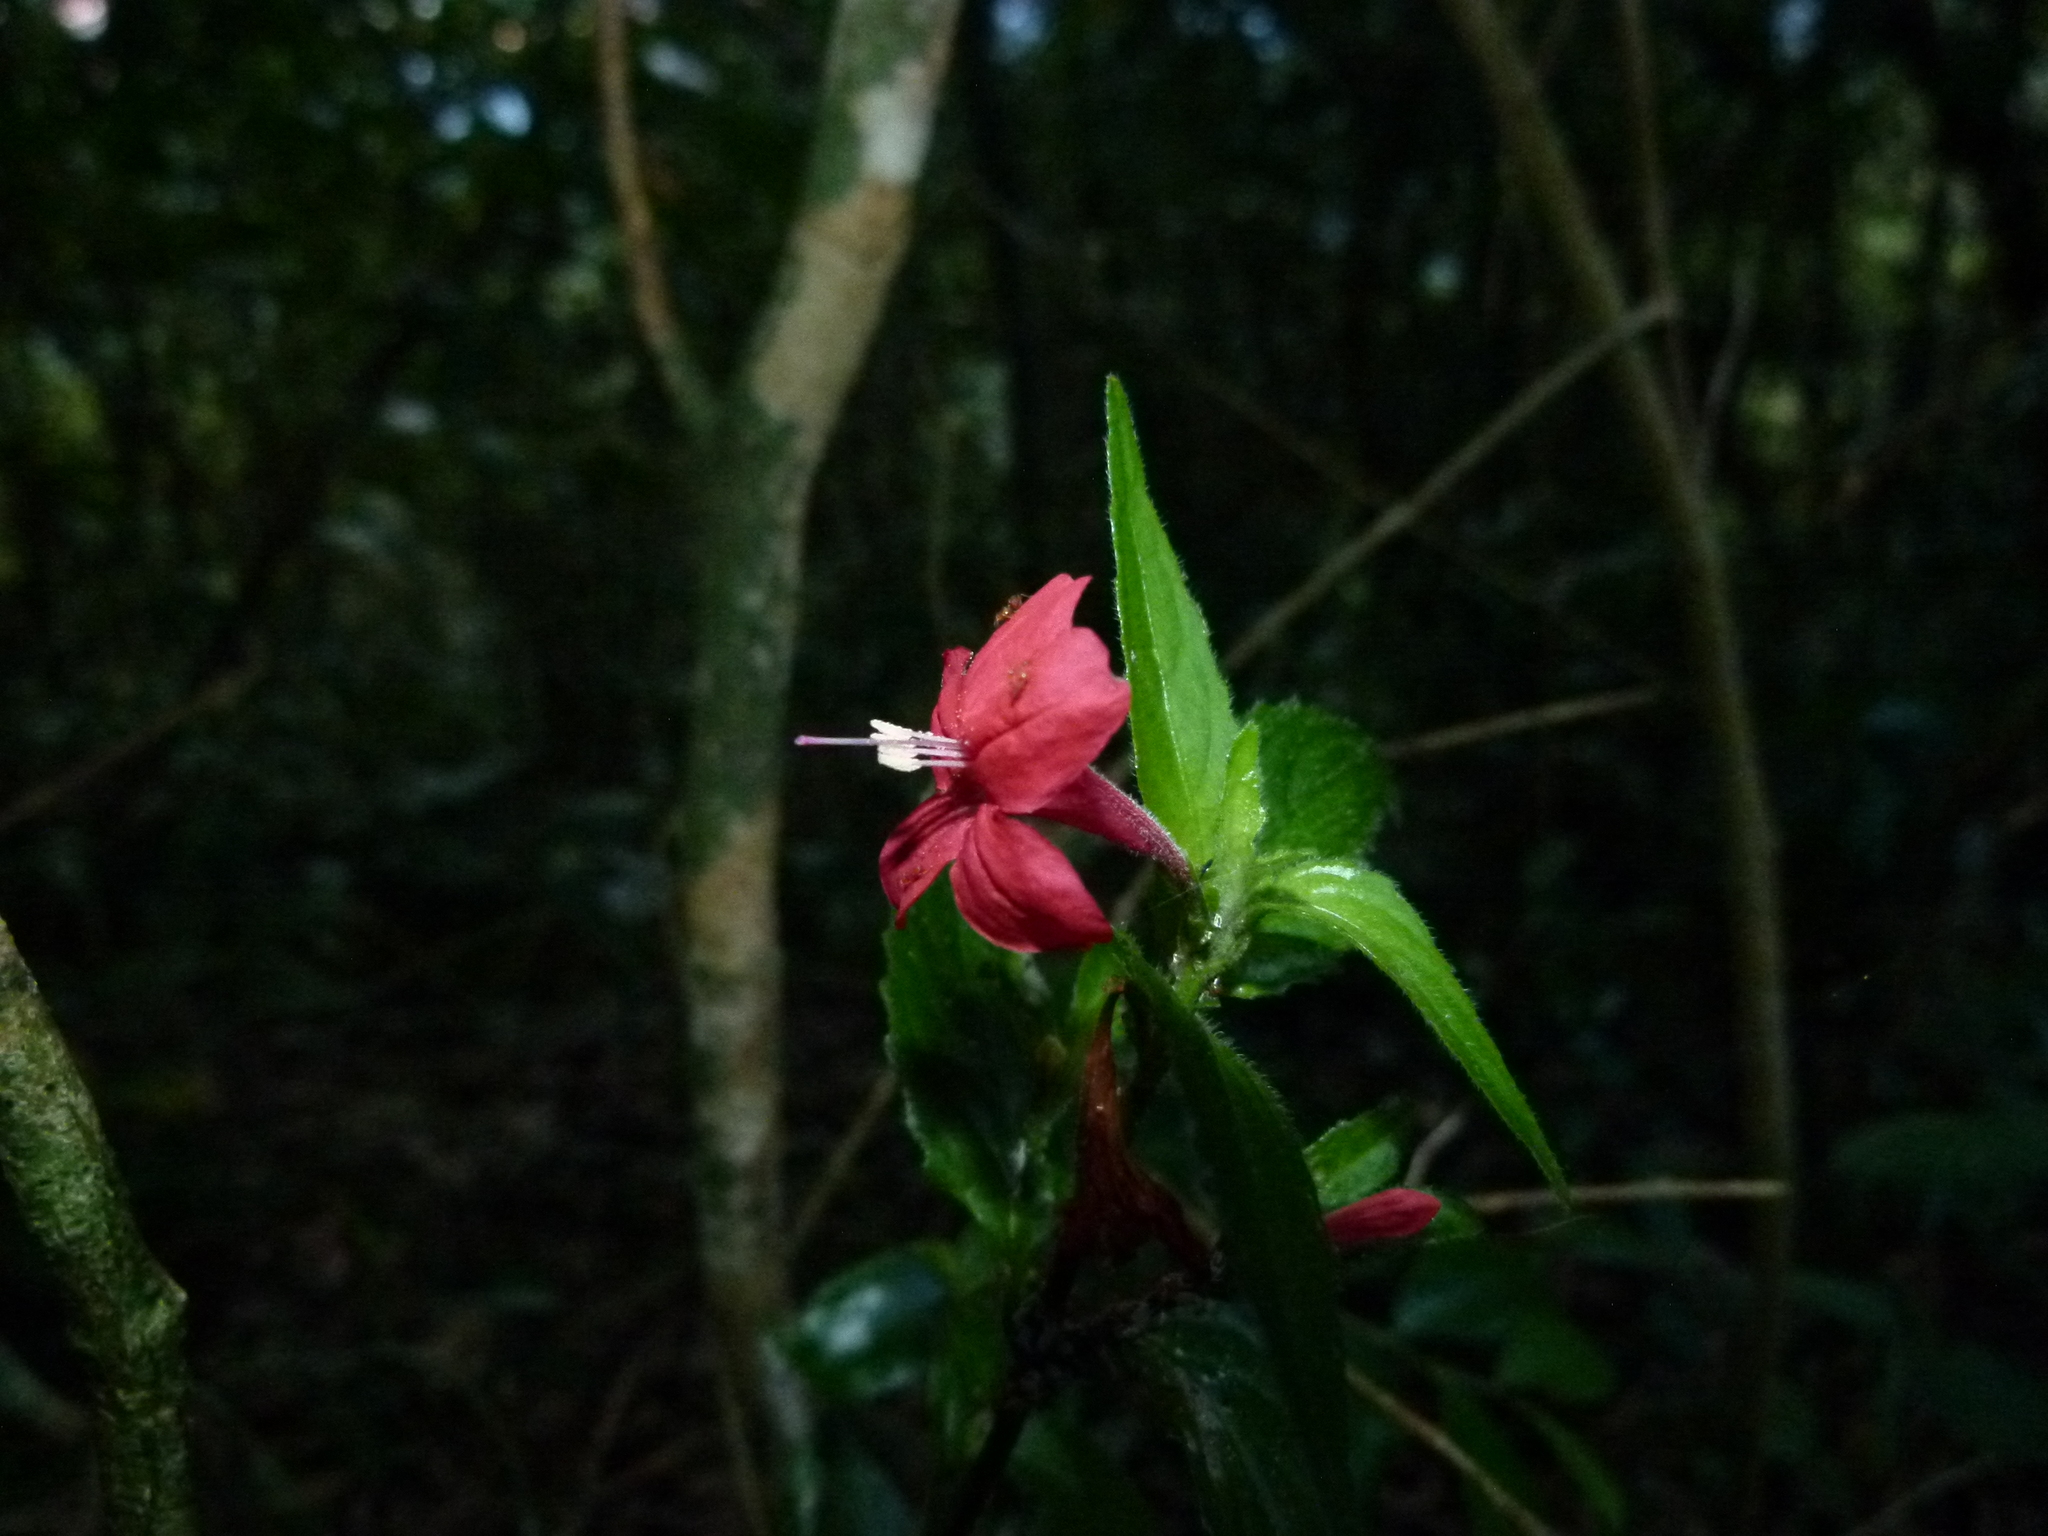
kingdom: Plantae
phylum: Tracheophyta
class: Magnoliopsida
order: Lamiales
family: Acanthaceae
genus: Ruellia
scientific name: Ruellia coccinea
